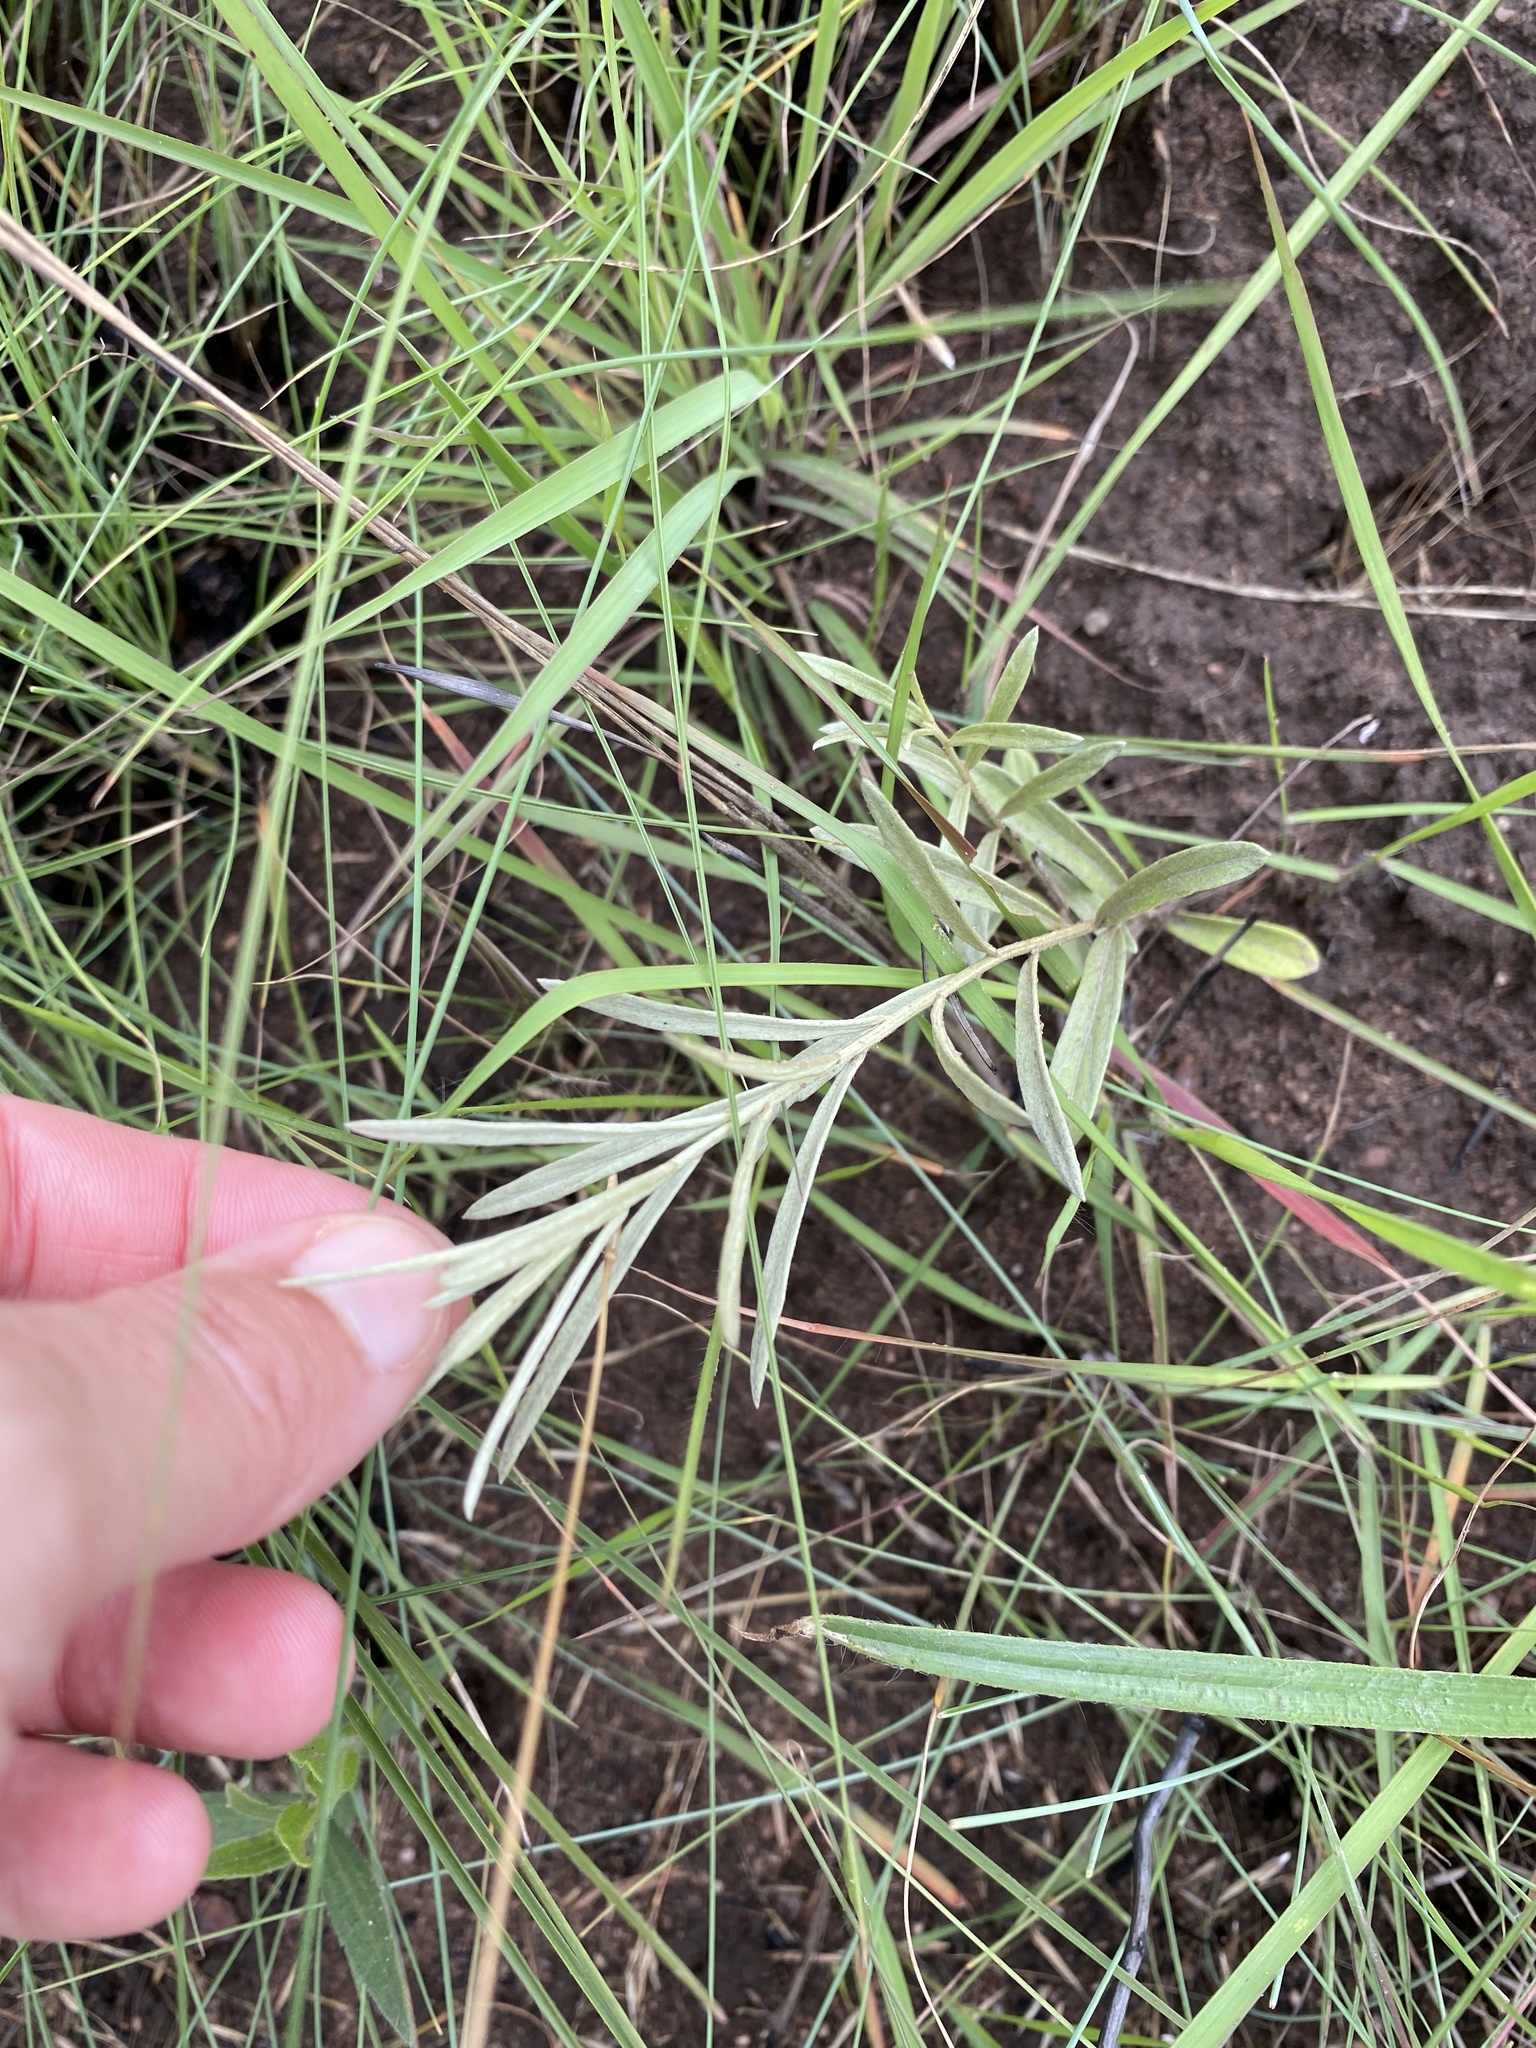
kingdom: Plantae
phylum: Tracheophyta
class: Magnoliopsida
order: Asterales
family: Asteraceae
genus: Hilliardiella
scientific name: Hilliardiella aristata
